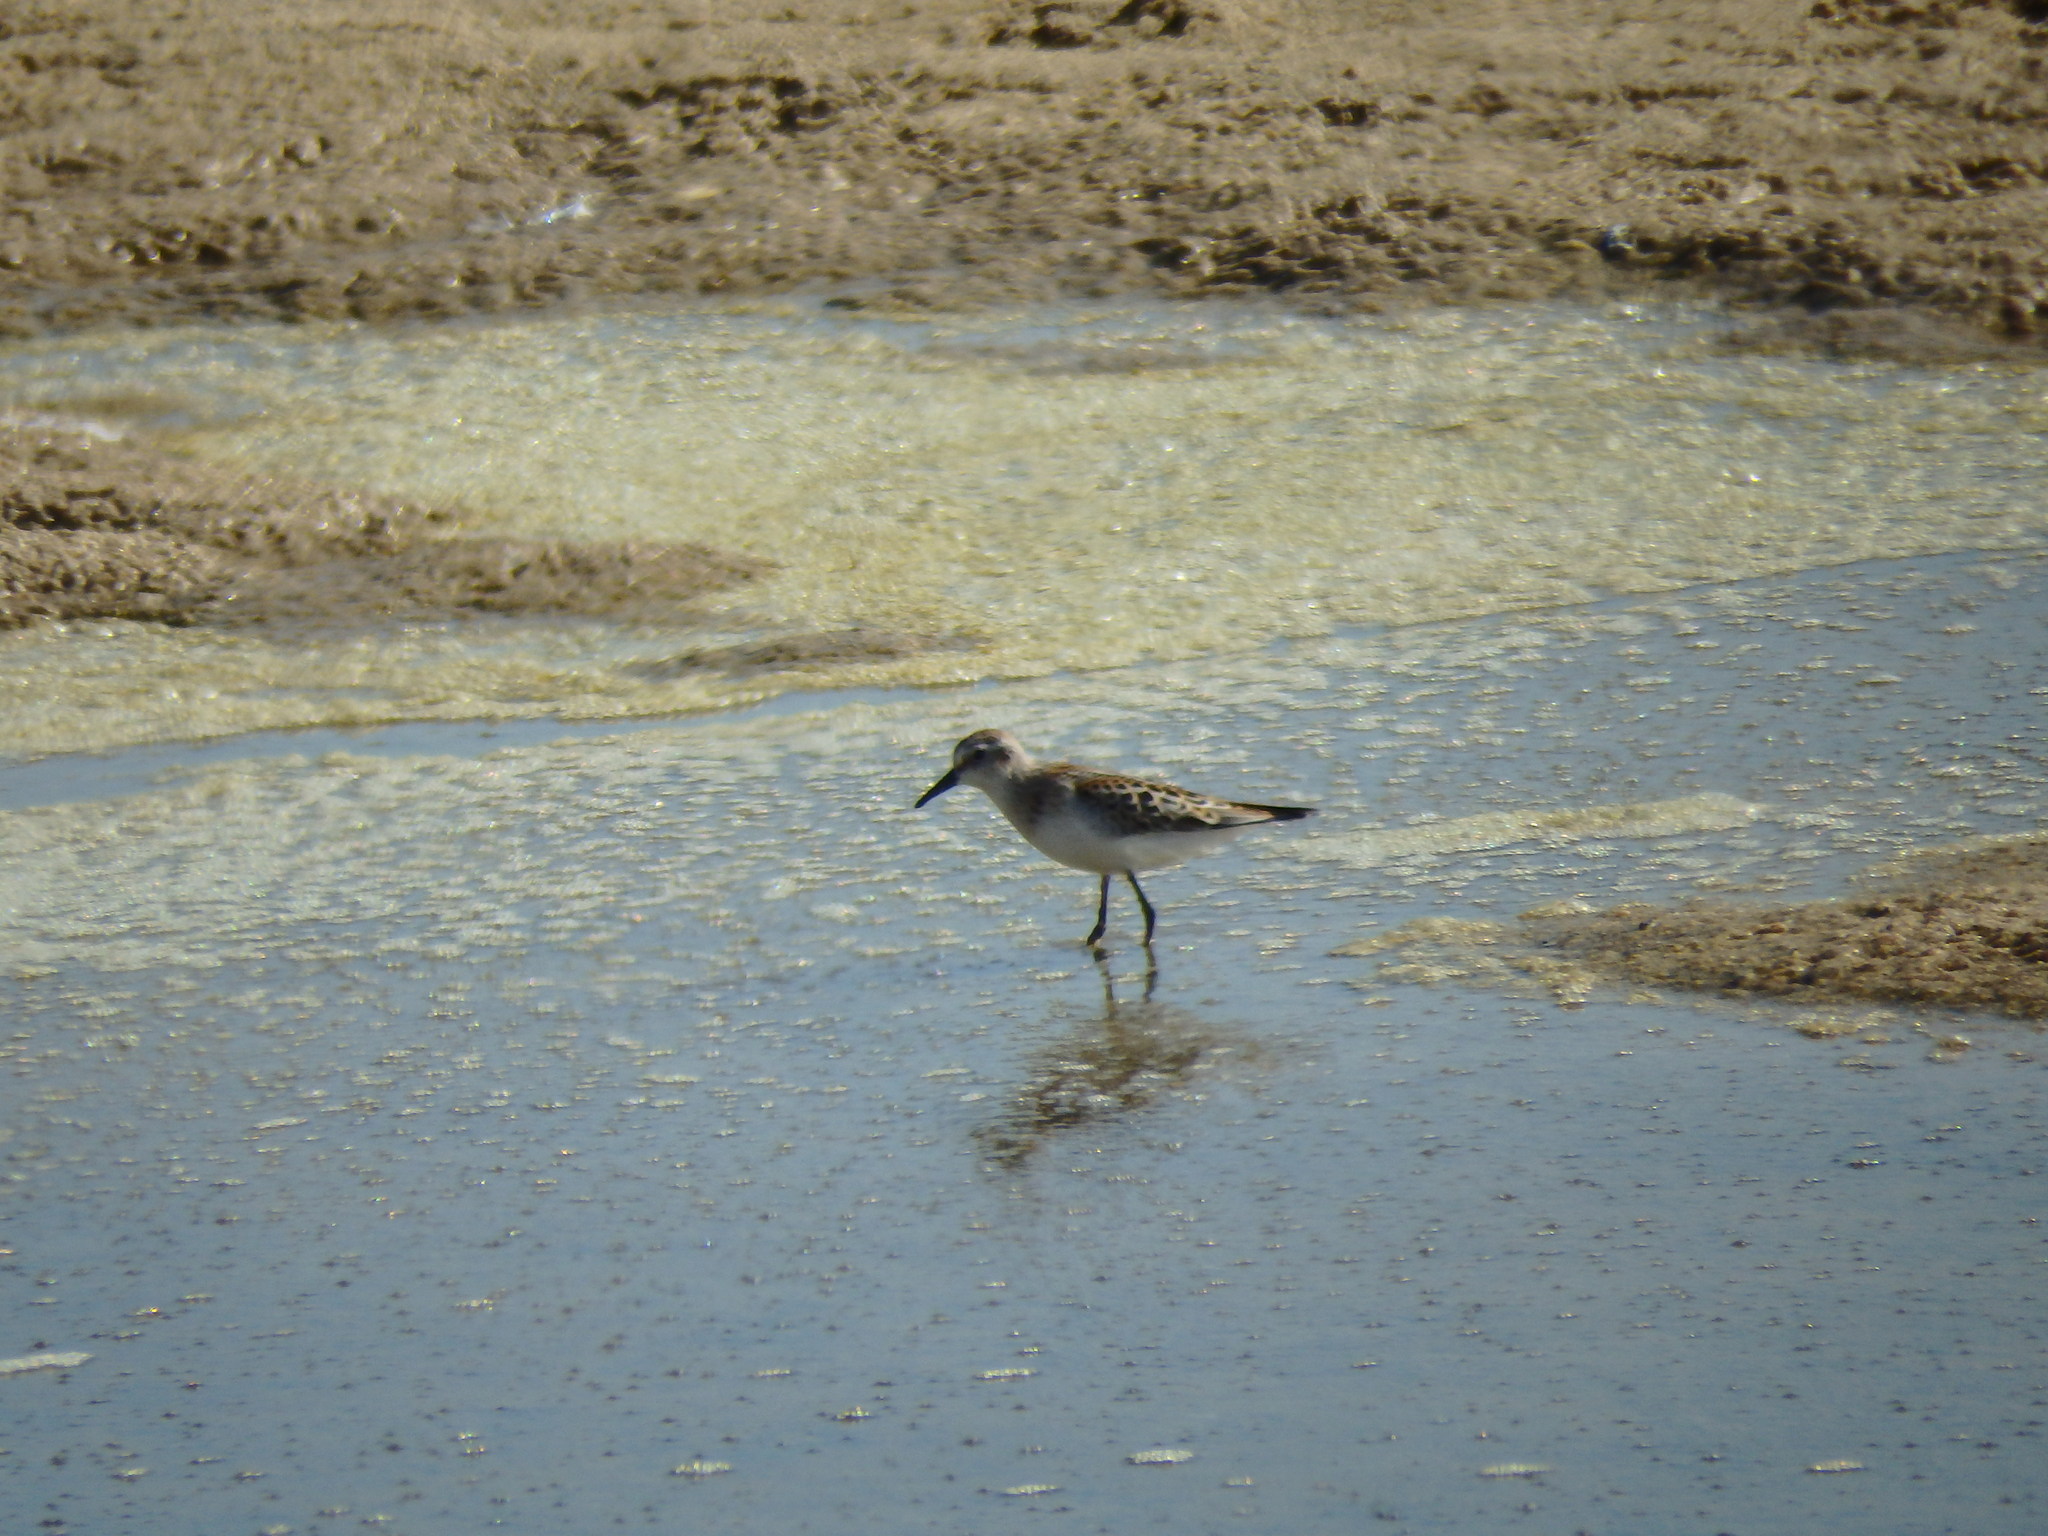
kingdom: Animalia
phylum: Chordata
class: Aves
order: Charadriiformes
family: Scolopacidae
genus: Calidris
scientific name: Calidris minuta
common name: Little stint
